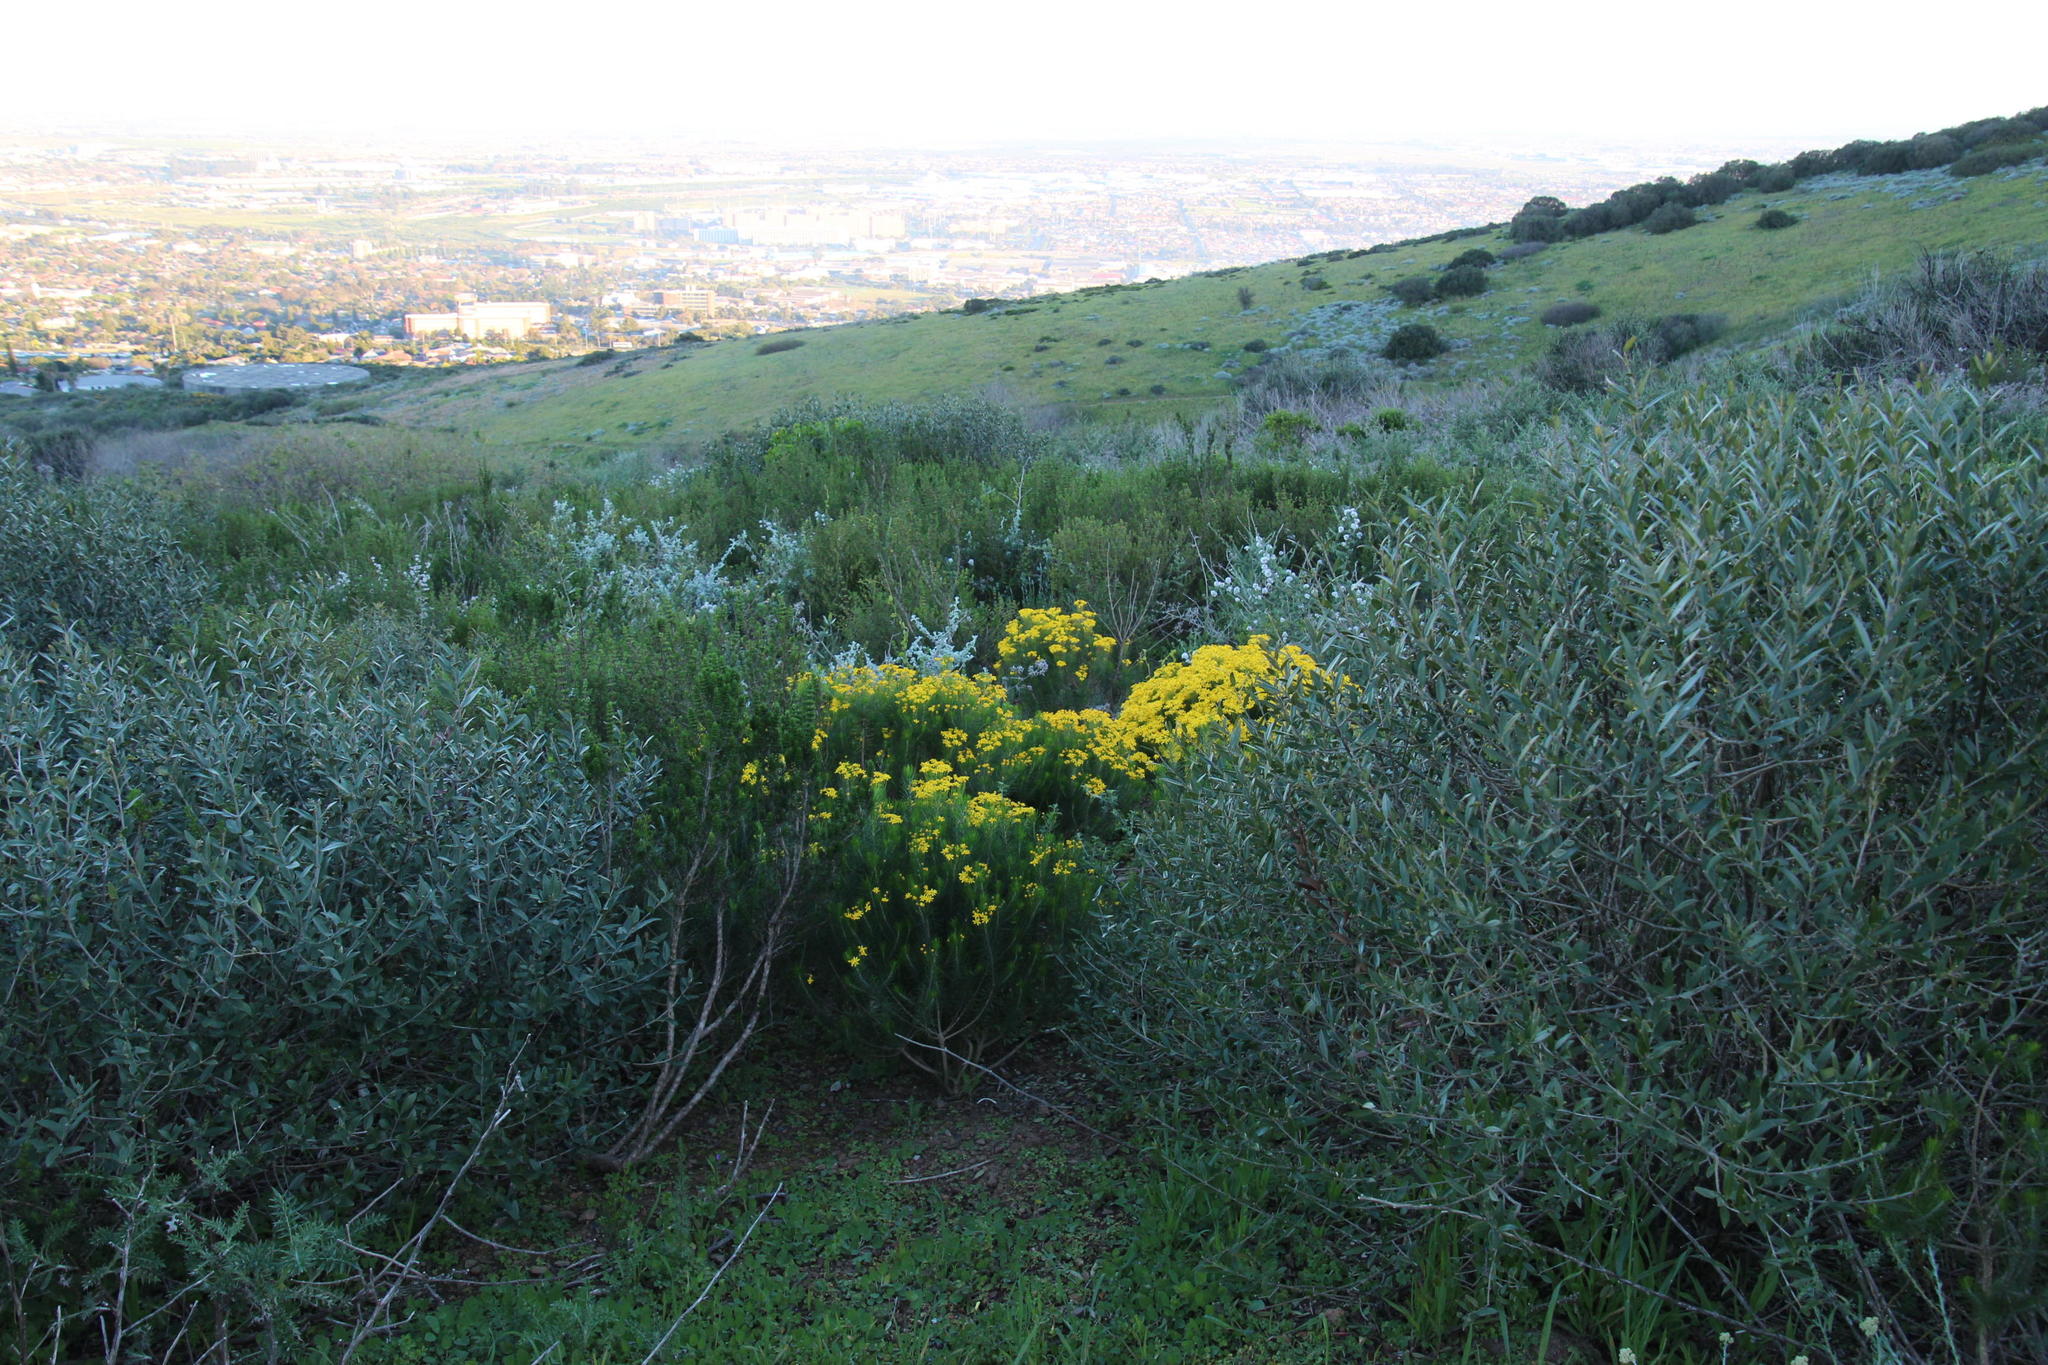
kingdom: Plantae
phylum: Tracheophyta
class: Magnoliopsida
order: Asterales
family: Asteraceae
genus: Euryops
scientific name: Euryops linifolius
